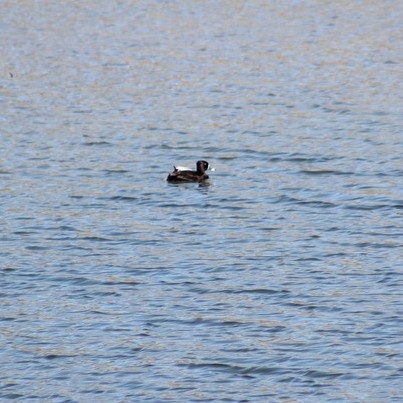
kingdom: Animalia
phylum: Chordata
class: Aves
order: Anseriformes
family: Anatidae
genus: Aythya
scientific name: Aythya collaris
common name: Ring-necked duck
